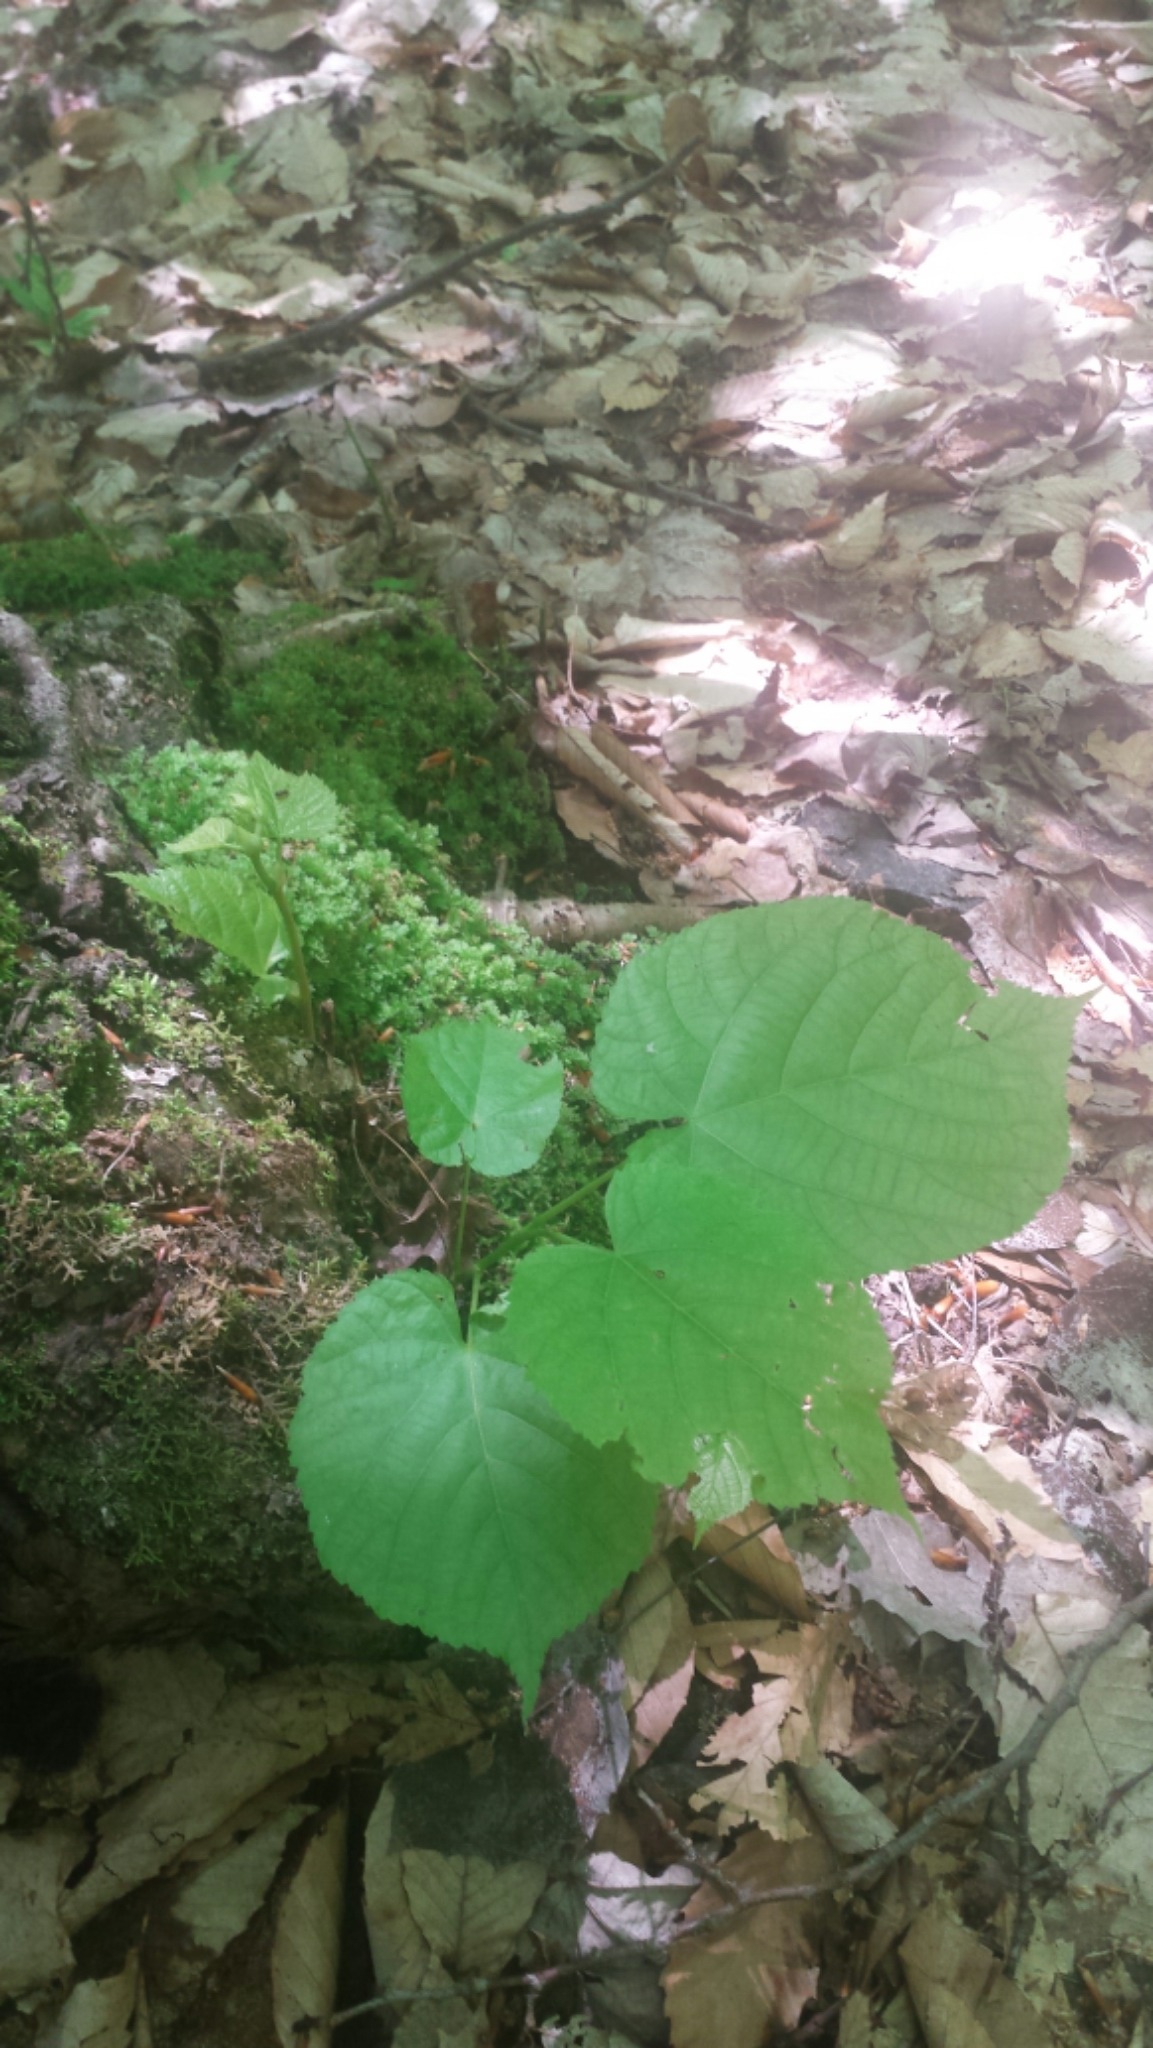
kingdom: Plantae
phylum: Tracheophyta
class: Magnoliopsida
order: Malvales
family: Malvaceae
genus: Tilia
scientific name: Tilia americana
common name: Basswood
